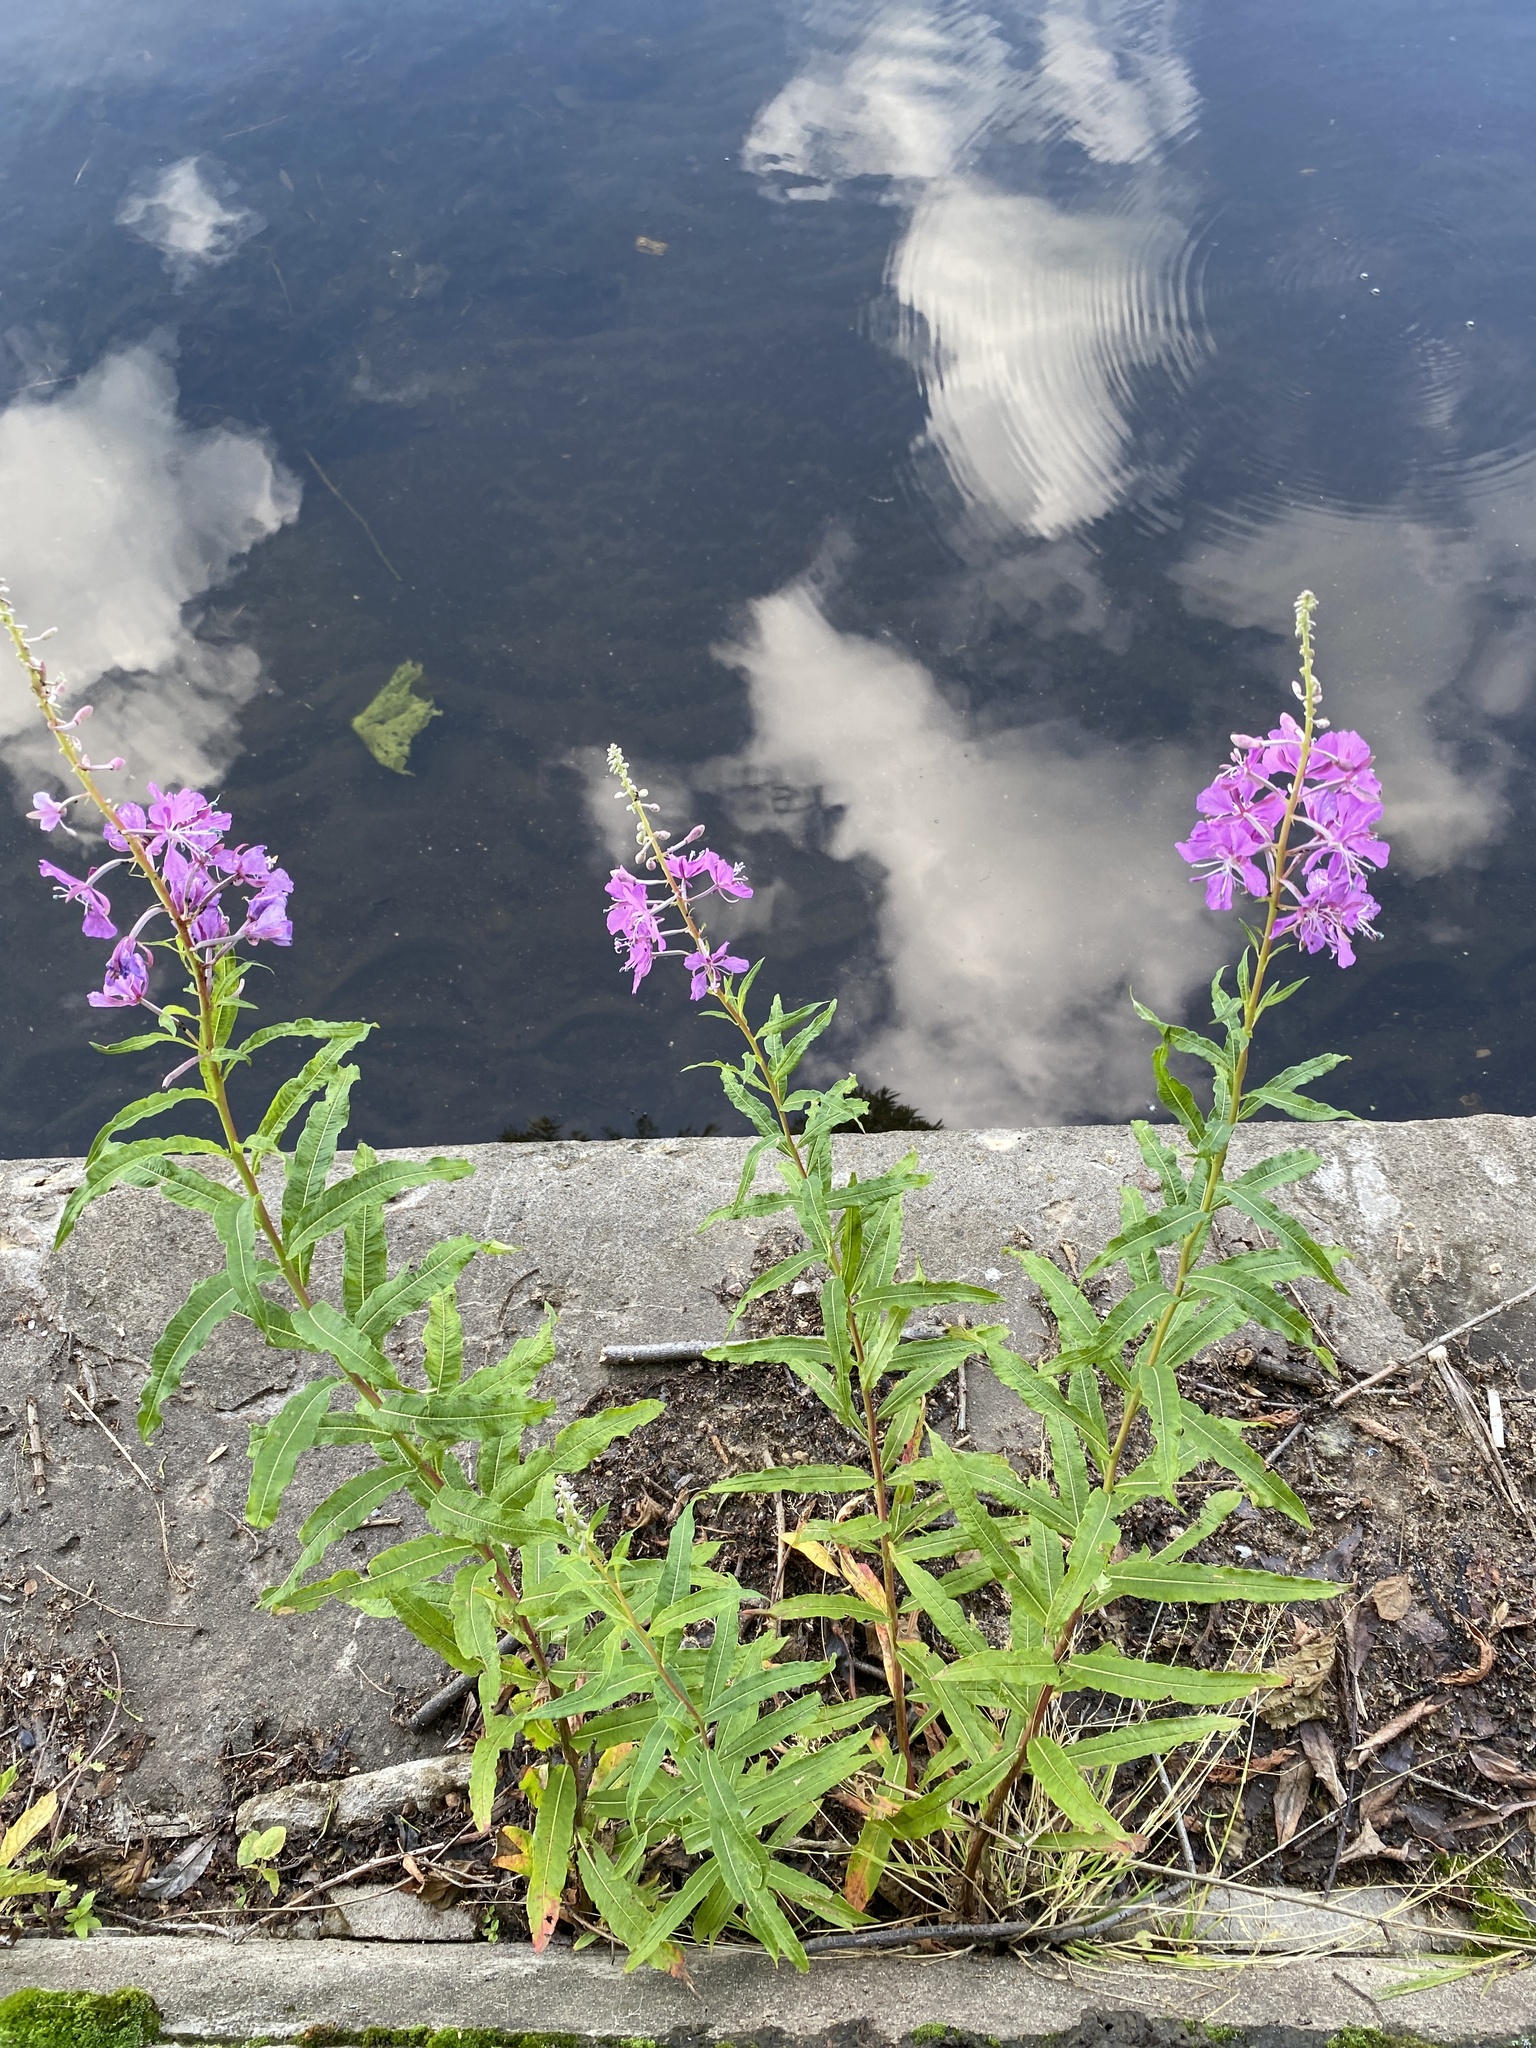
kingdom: Plantae
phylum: Tracheophyta
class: Magnoliopsida
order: Myrtales
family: Onagraceae
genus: Chamaenerion
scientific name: Chamaenerion angustifolium
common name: Fireweed
